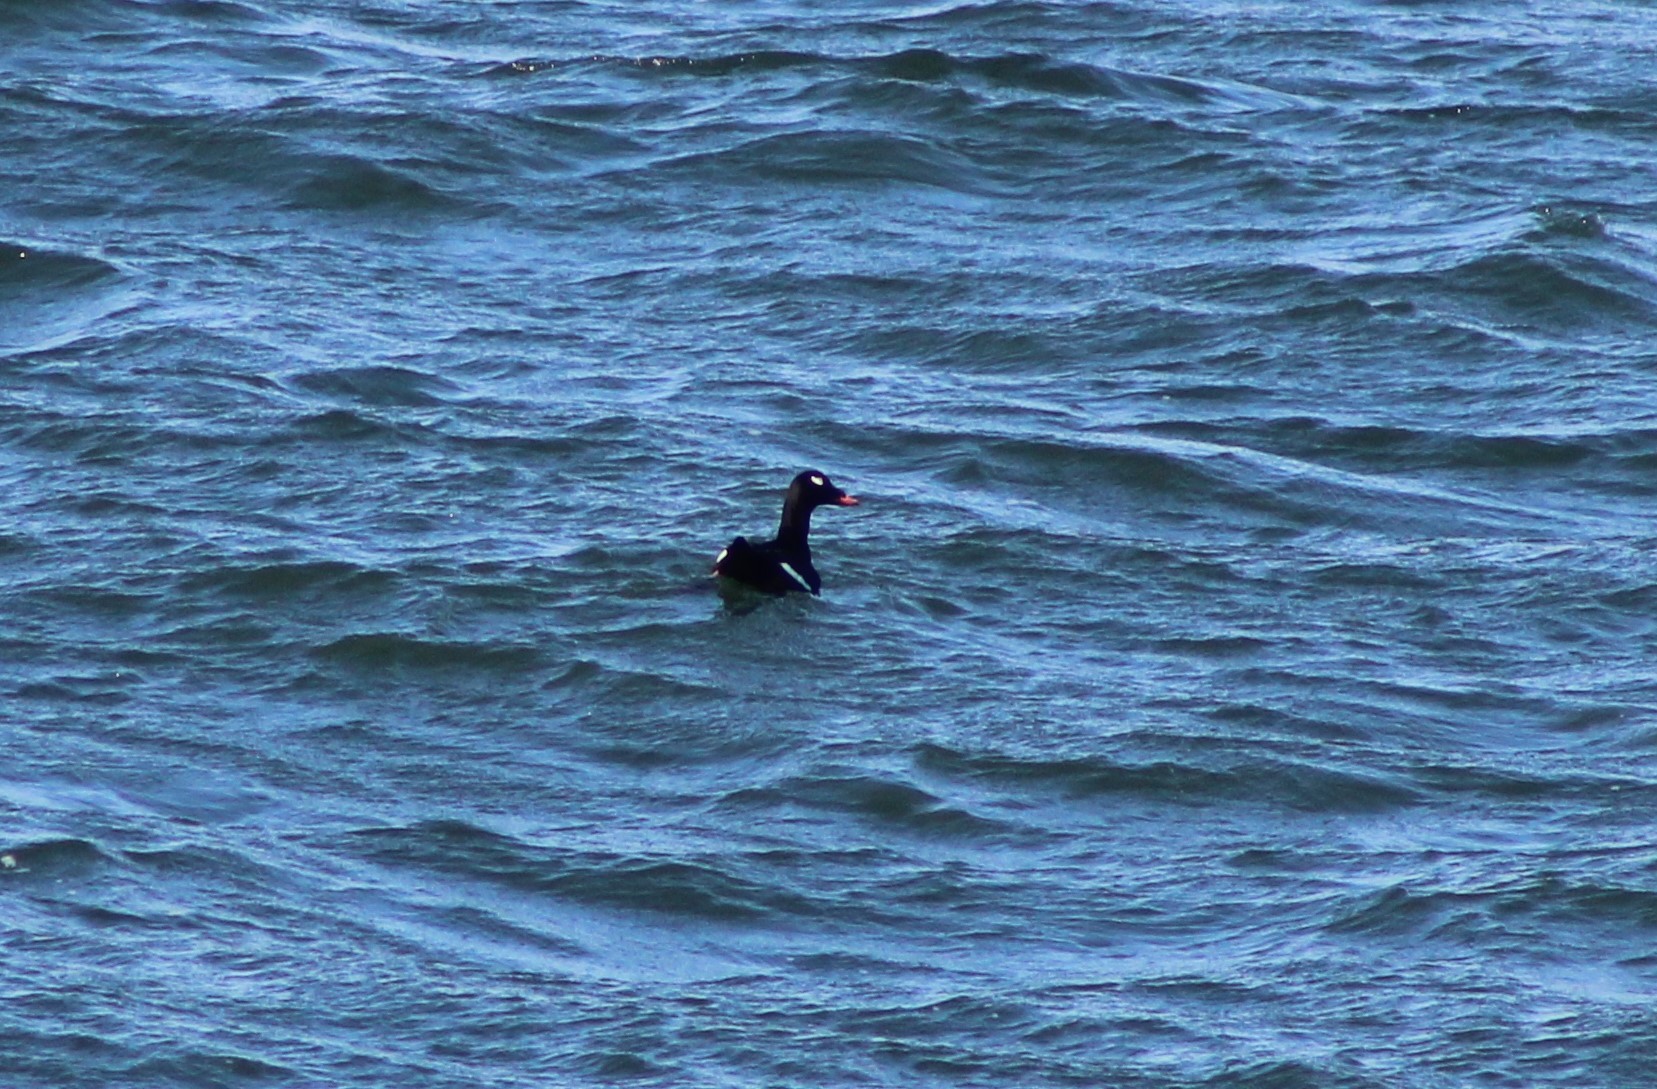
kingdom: Animalia
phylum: Chordata
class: Aves
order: Anseriformes
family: Anatidae
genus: Melanitta
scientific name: Melanitta deglandi
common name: White-winged scoter
